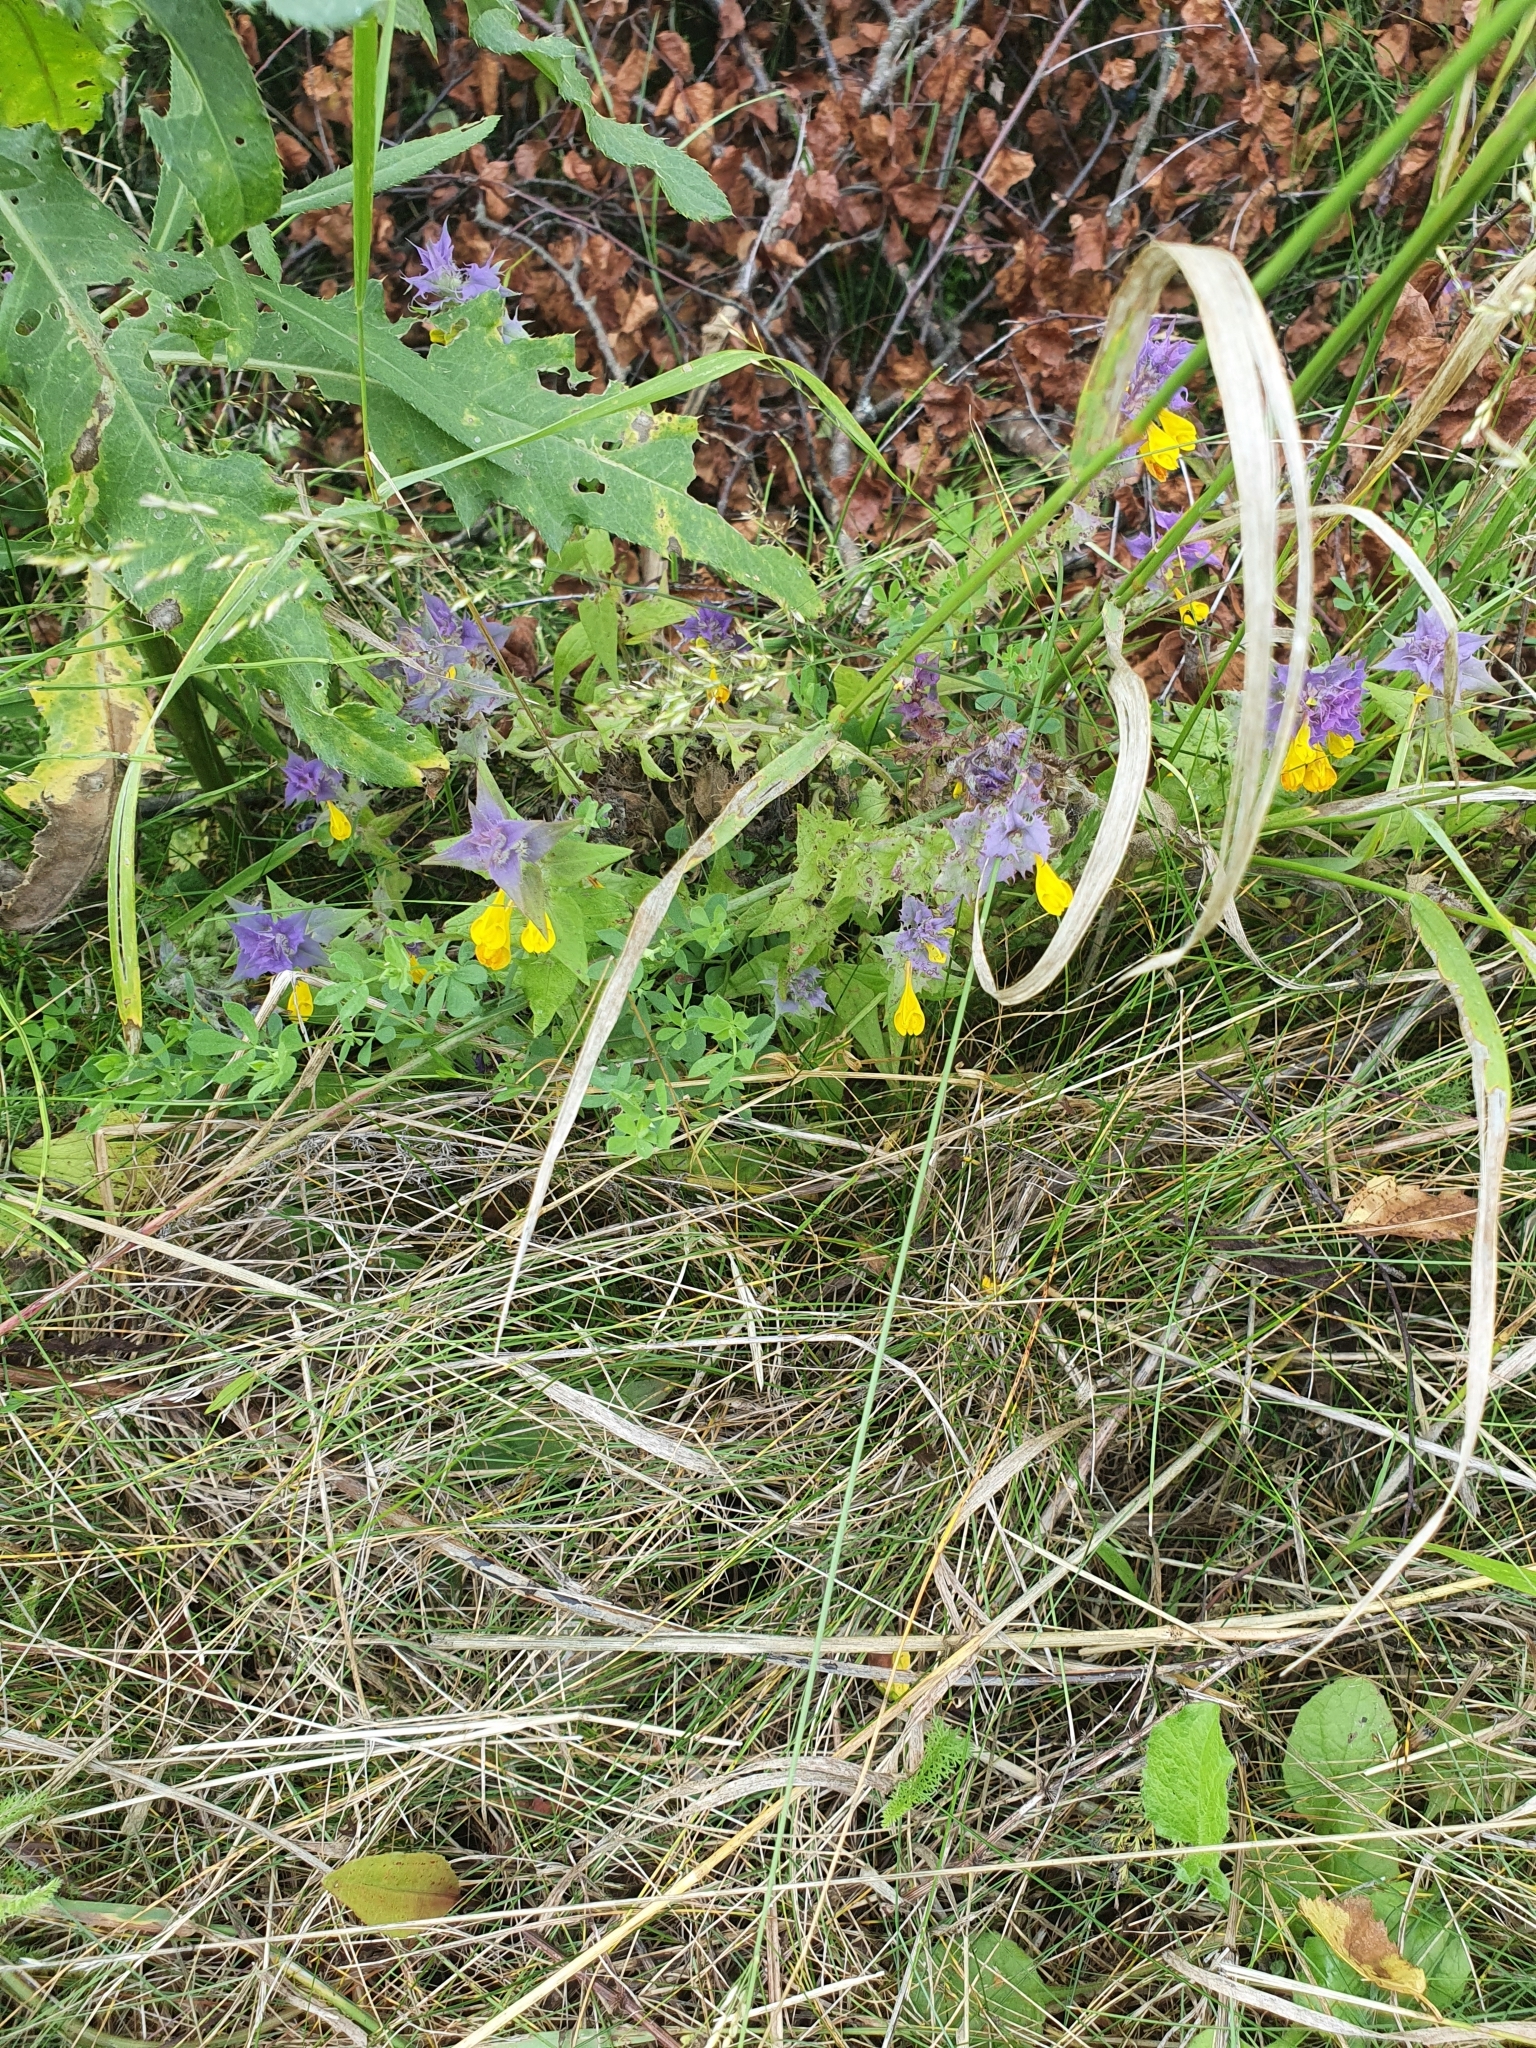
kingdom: Plantae
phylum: Tracheophyta
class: Magnoliopsida
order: Lamiales
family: Orobanchaceae
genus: Melampyrum
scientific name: Melampyrum nemorosum
